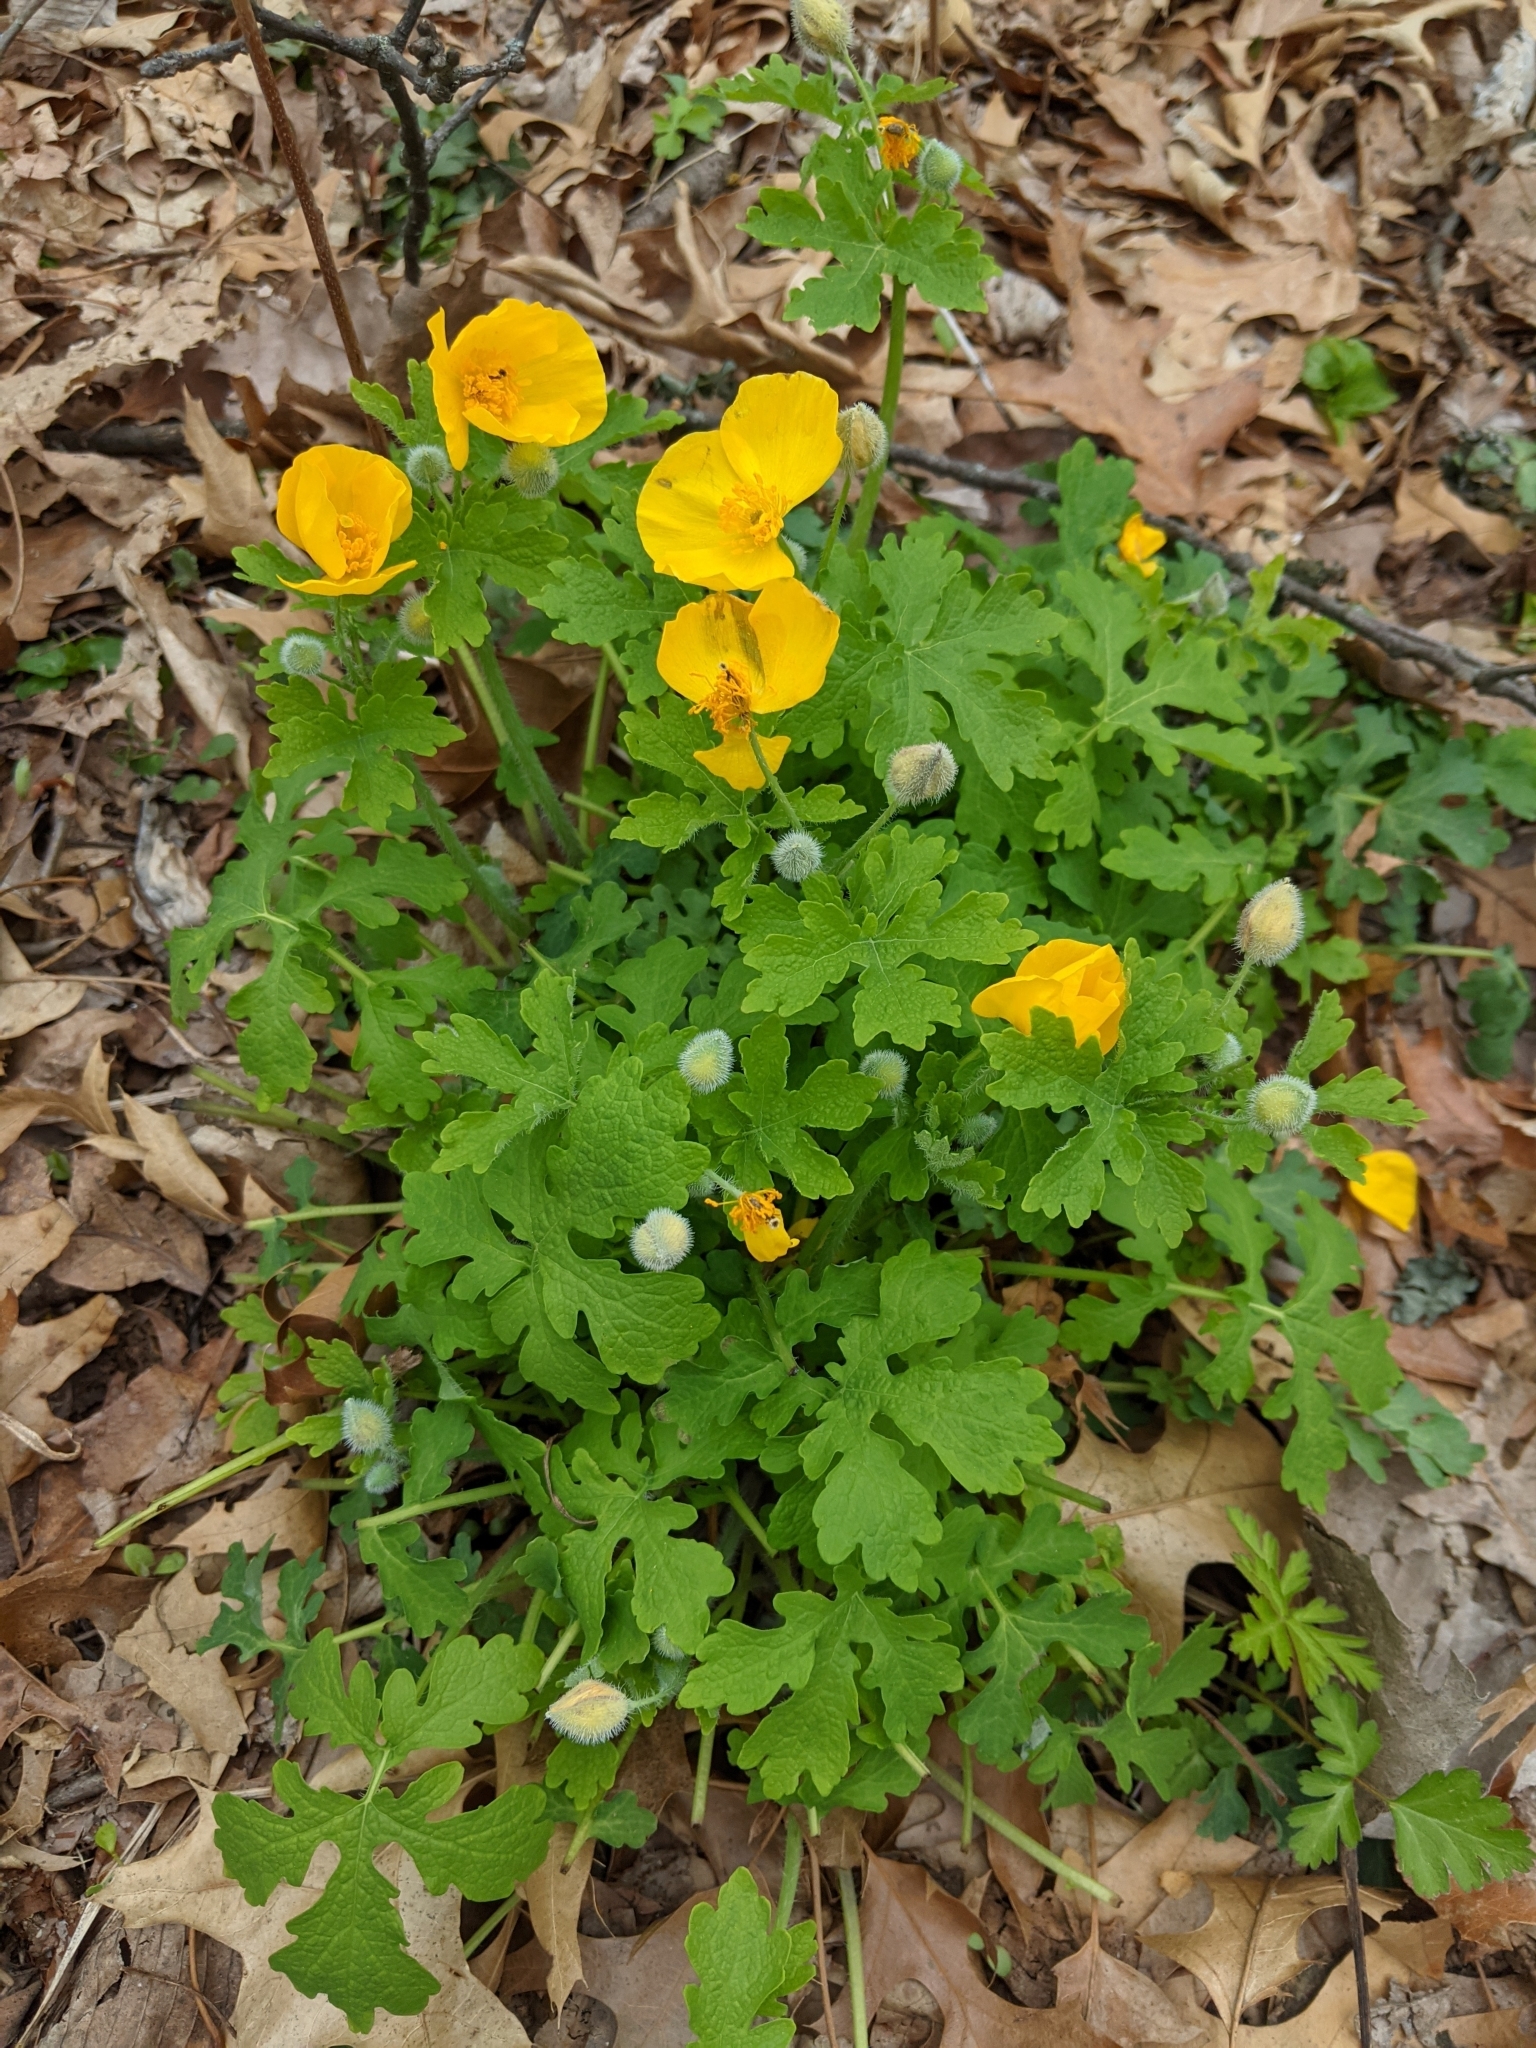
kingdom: Plantae
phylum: Tracheophyta
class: Magnoliopsida
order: Ranunculales
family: Papaveraceae
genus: Stylophorum
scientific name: Stylophorum diphyllum
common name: Celandine poppy
